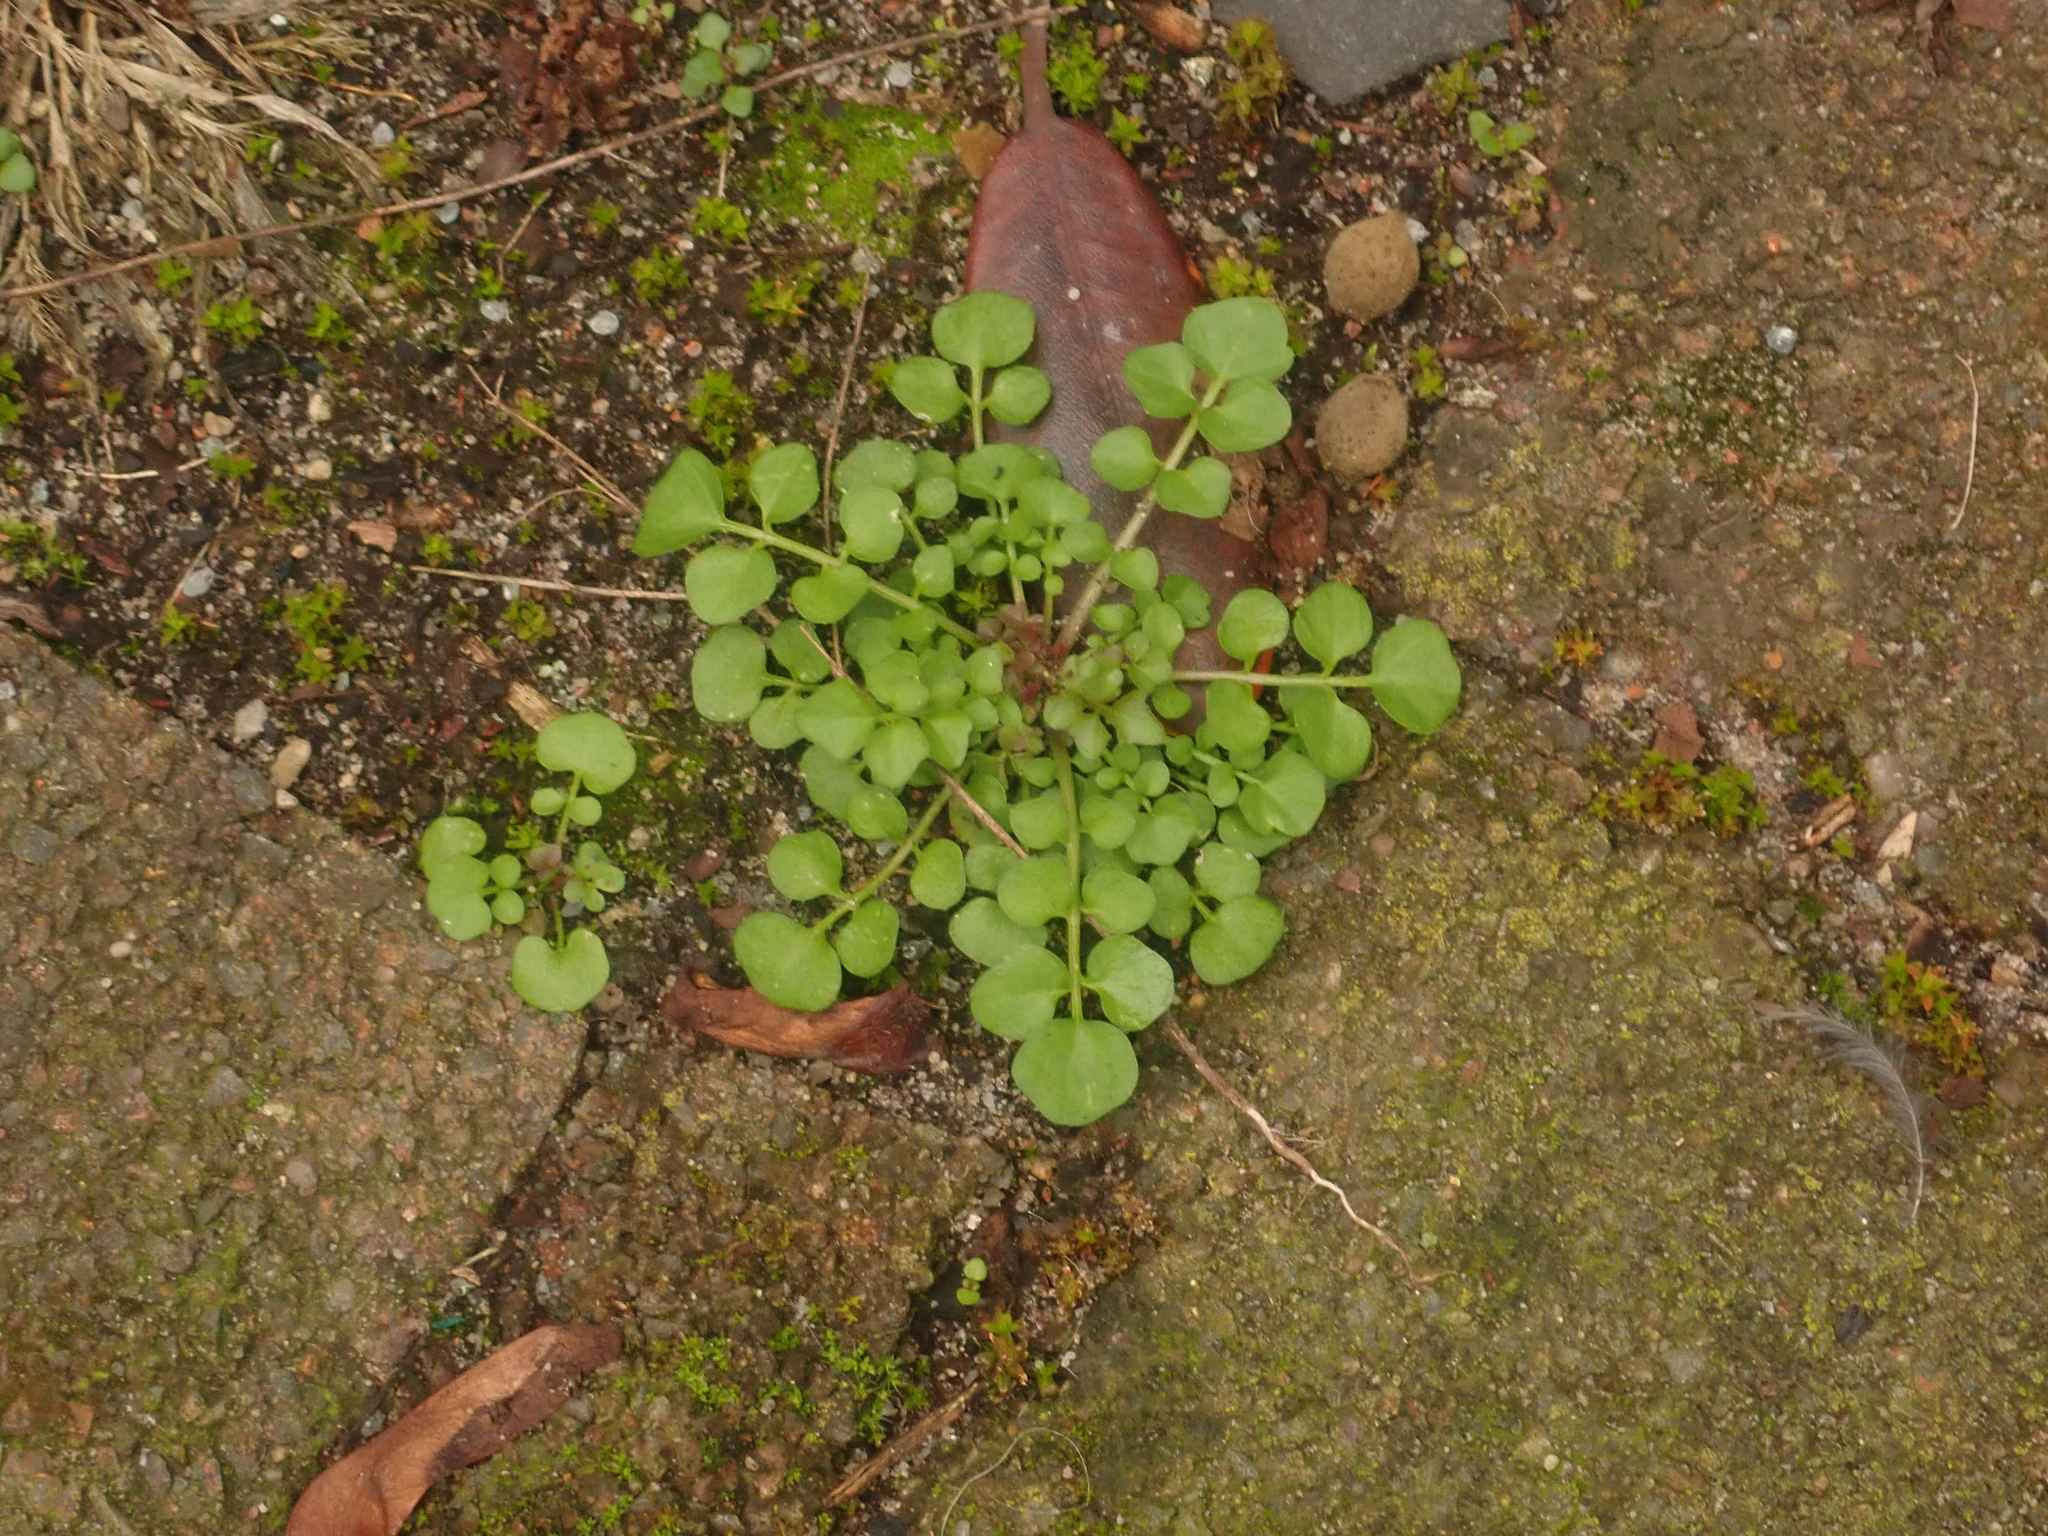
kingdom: Plantae
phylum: Tracheophyta
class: Magnoliopsida
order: Brassicales
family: Brassicaceae
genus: Cardamine
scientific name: Cardamine hirsuta
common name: Hairy bittercress
